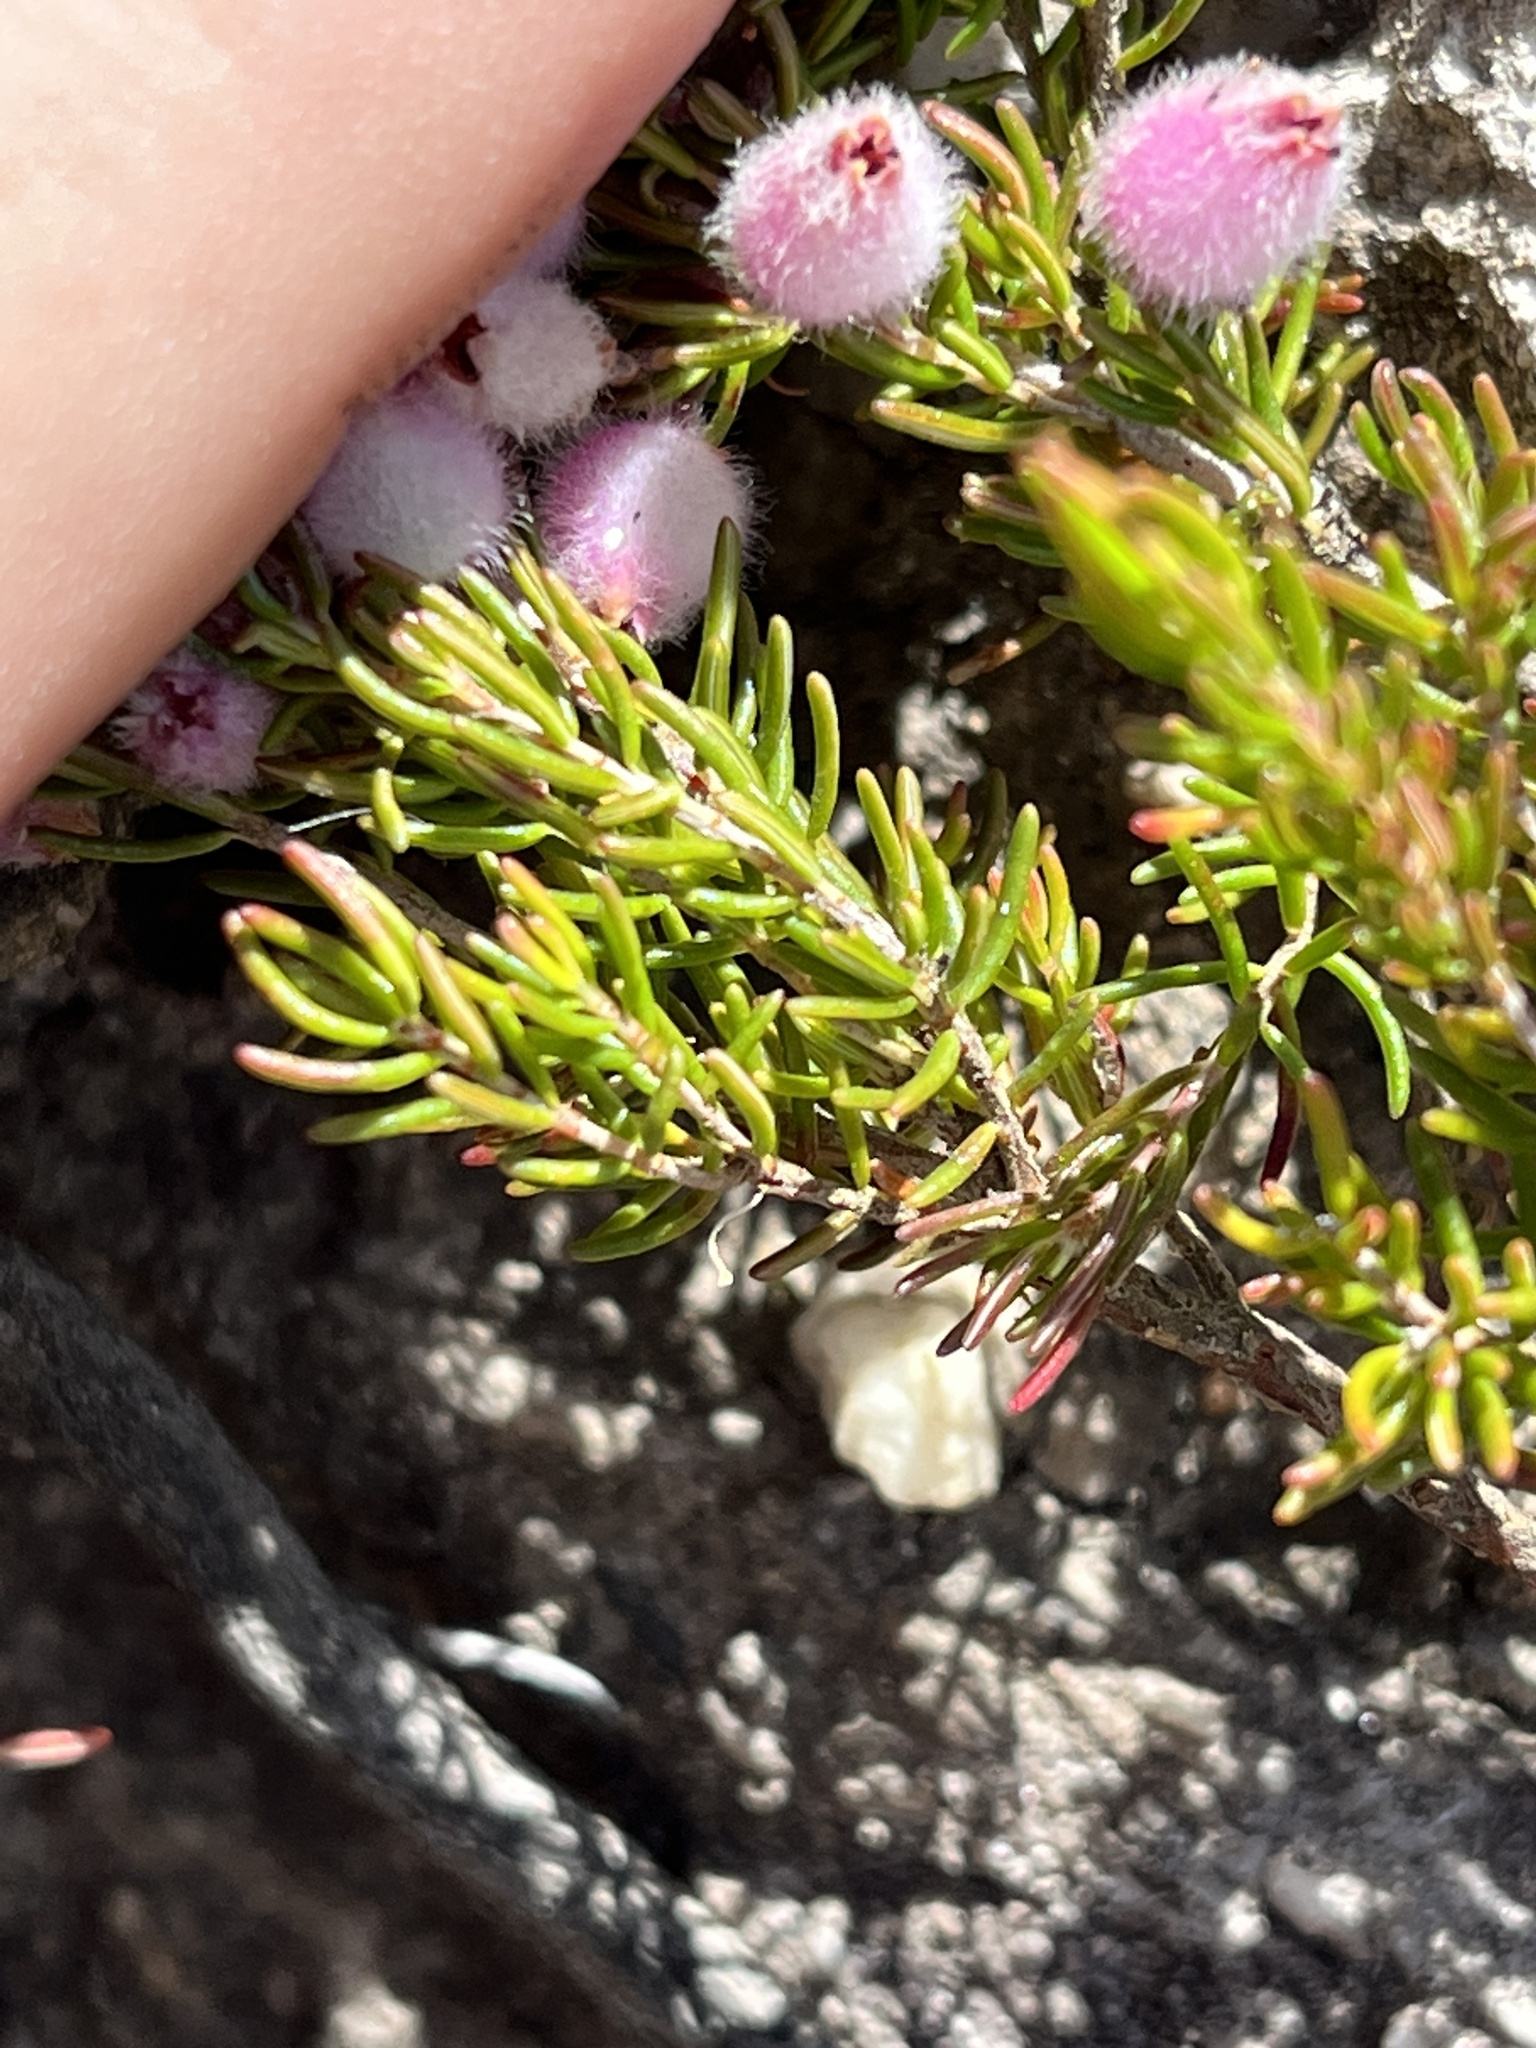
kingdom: Plantae
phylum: Tracheophyta
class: Magnoliopsida
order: Ericales
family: Ericaceae
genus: Erica
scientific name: Erica ovina
